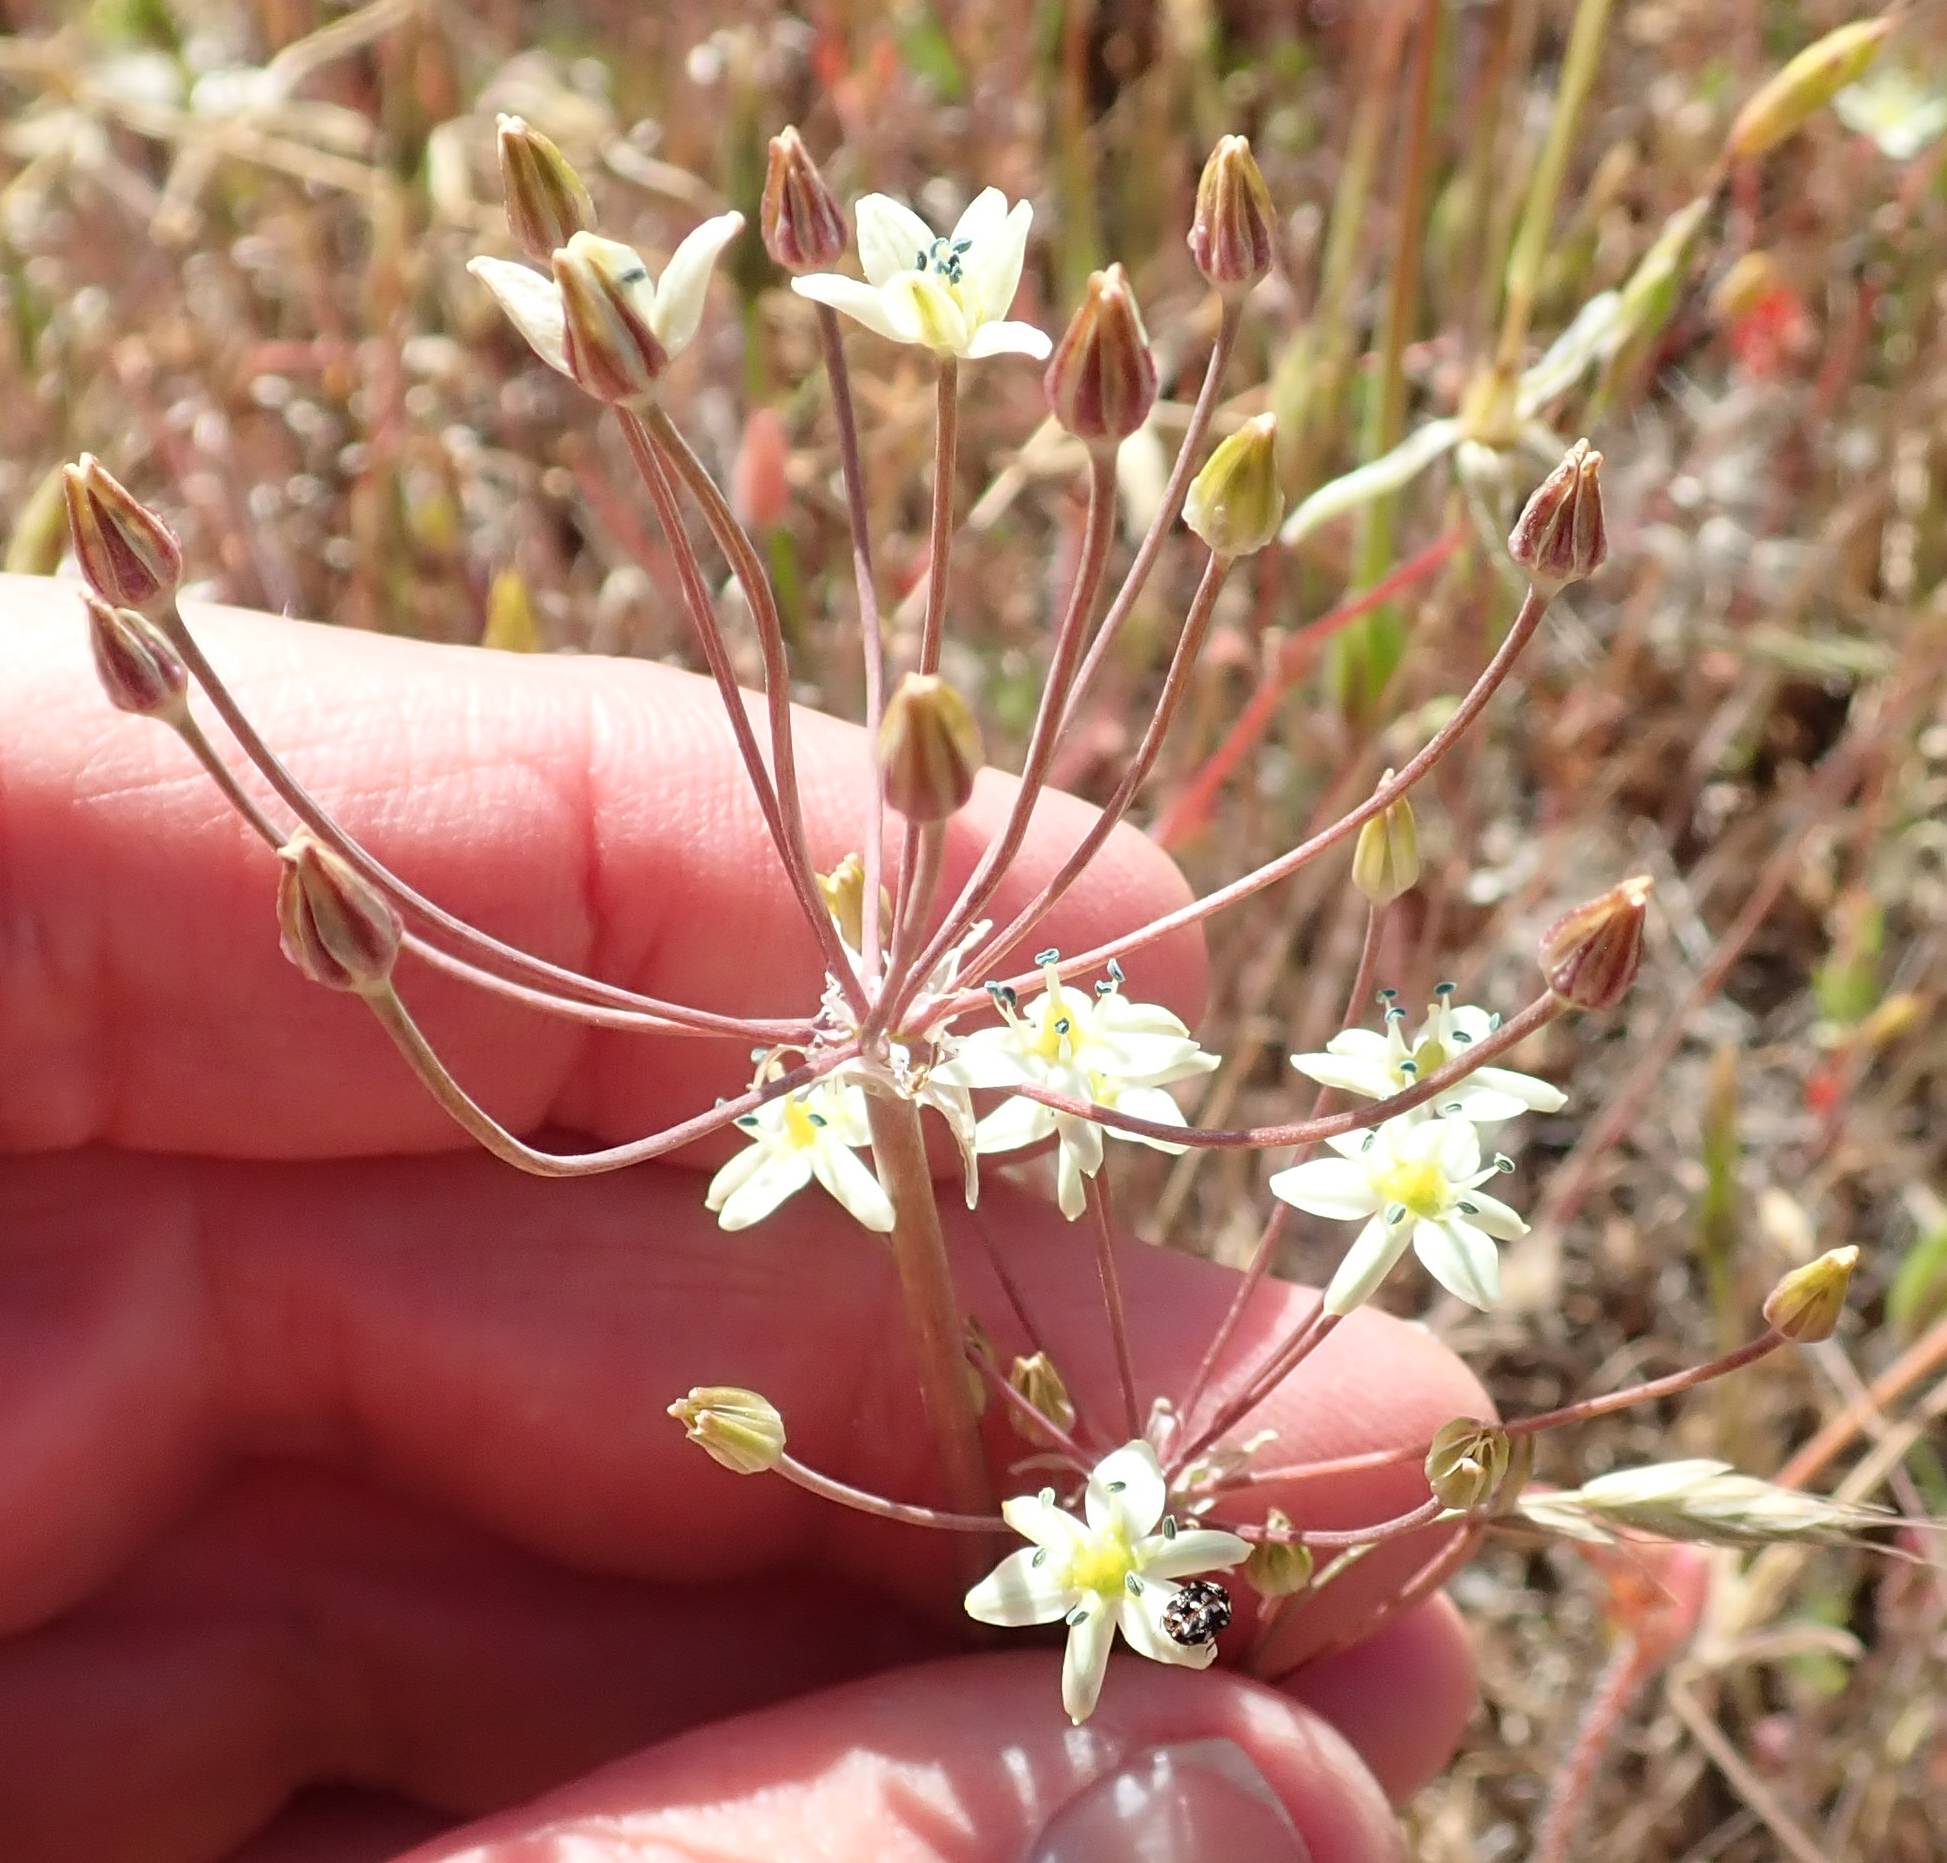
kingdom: Plantae
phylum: Tracheophyta
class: Liliopsida
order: Asparagales
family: Asparagaceae
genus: Muilla
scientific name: Muilla maritima
